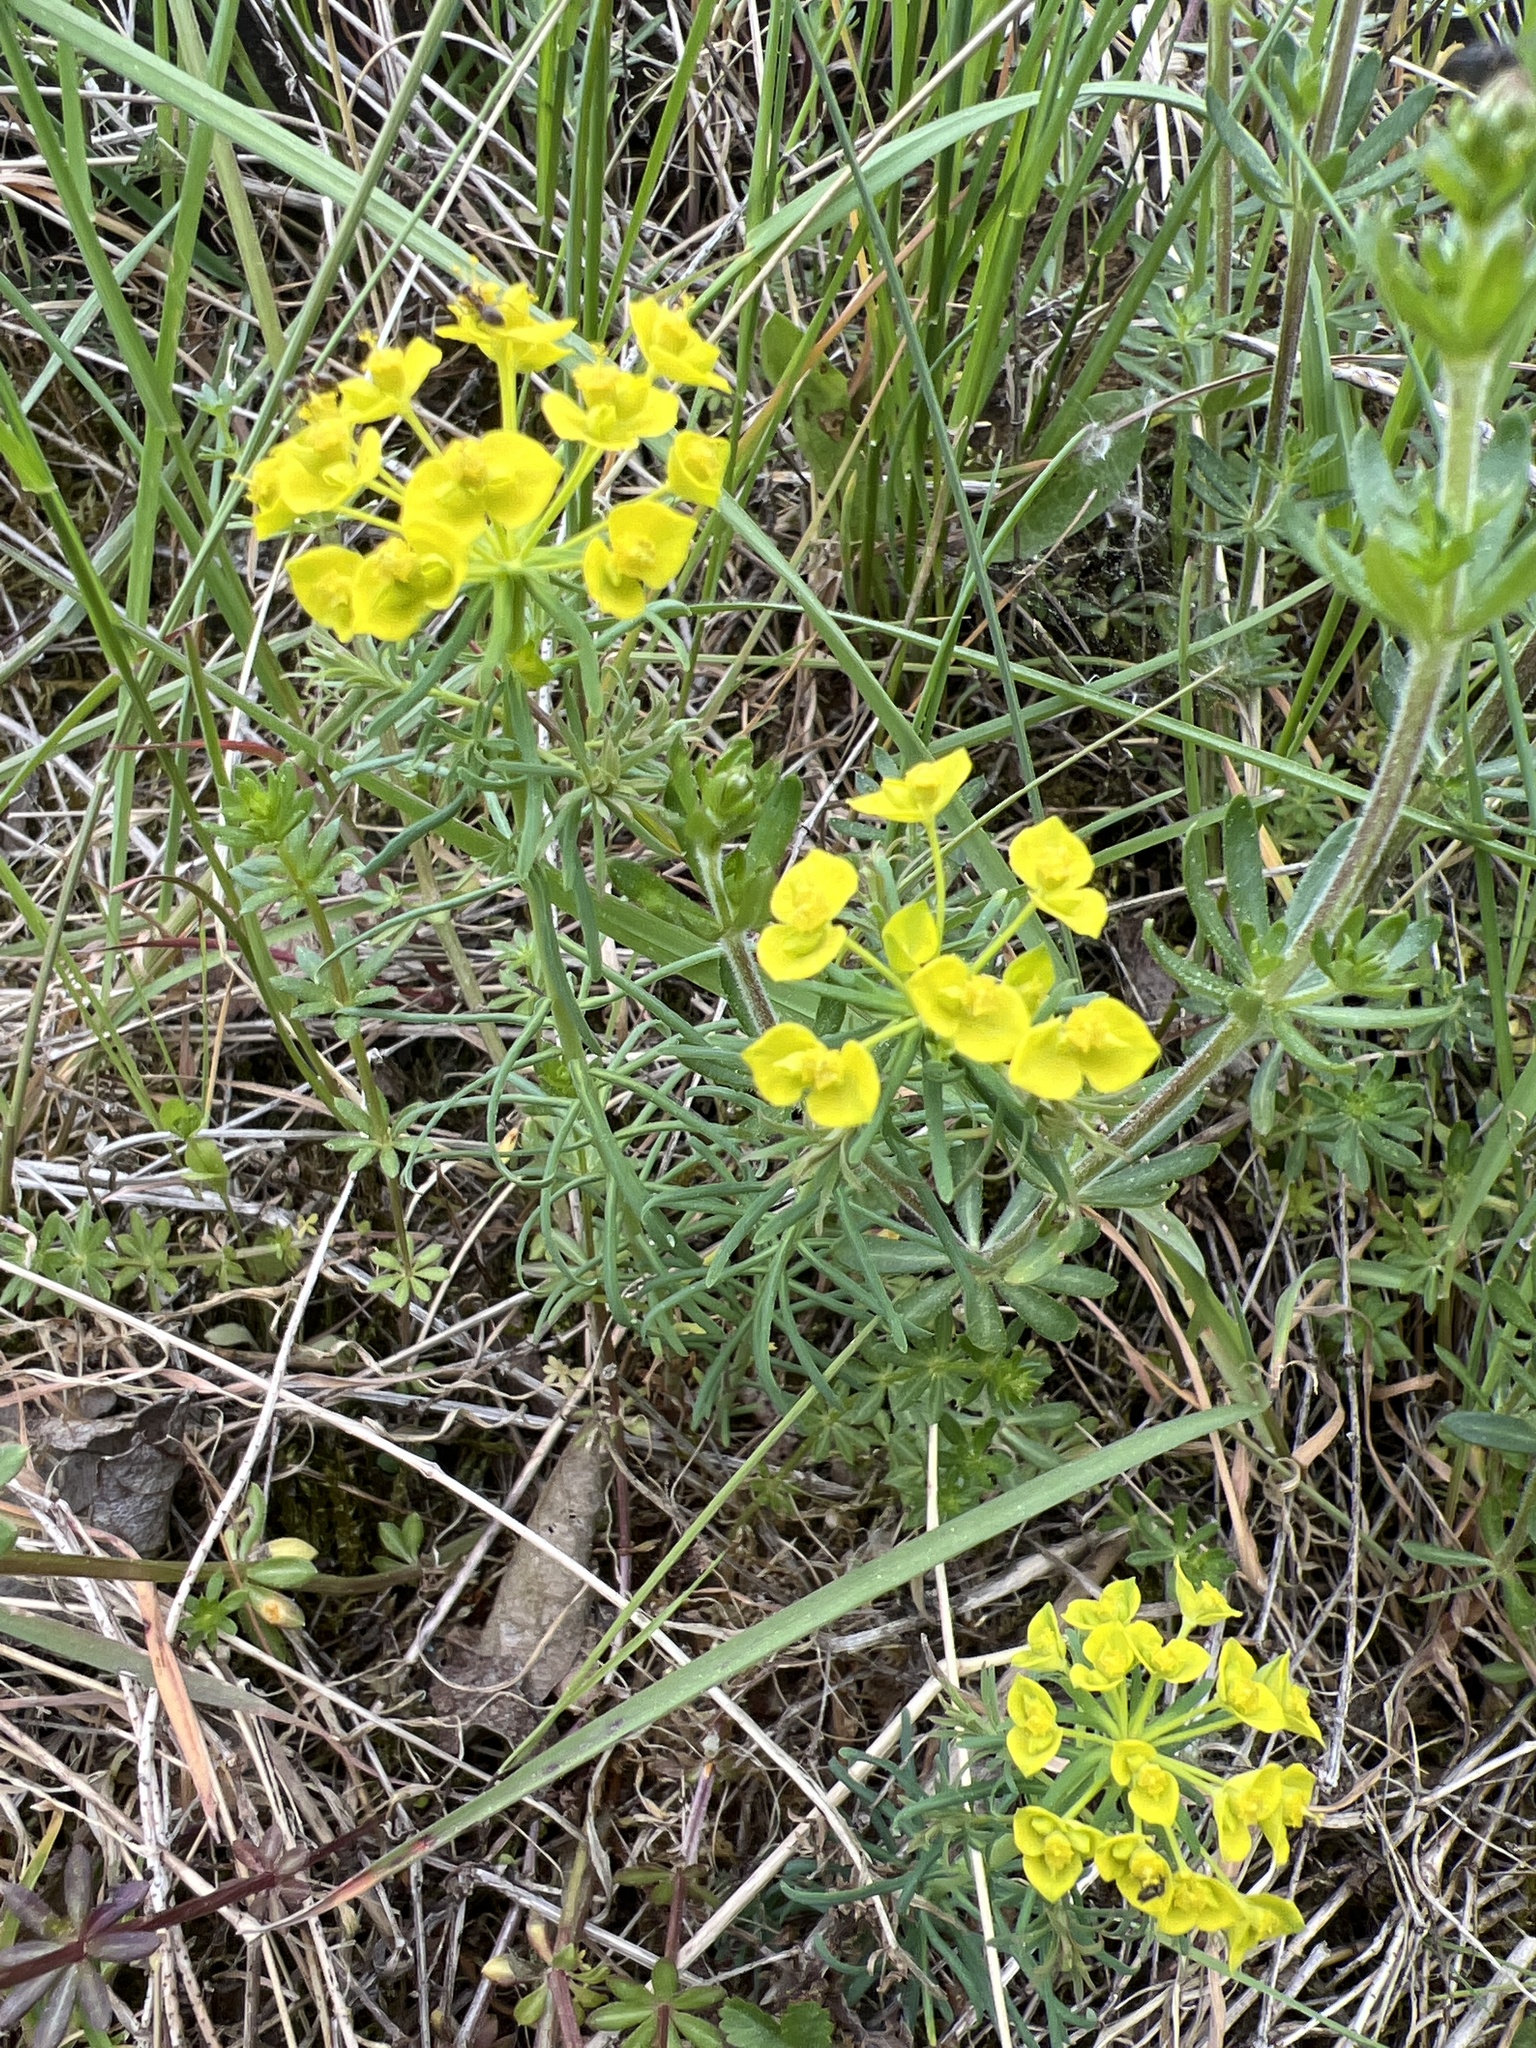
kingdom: Plantae
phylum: Tracheophyta
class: Magnoliopsida
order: Malpighiales
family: Euphorbiaceae
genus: Euphorbia
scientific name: Euphorbia cyparissias
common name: Cypress spurge
